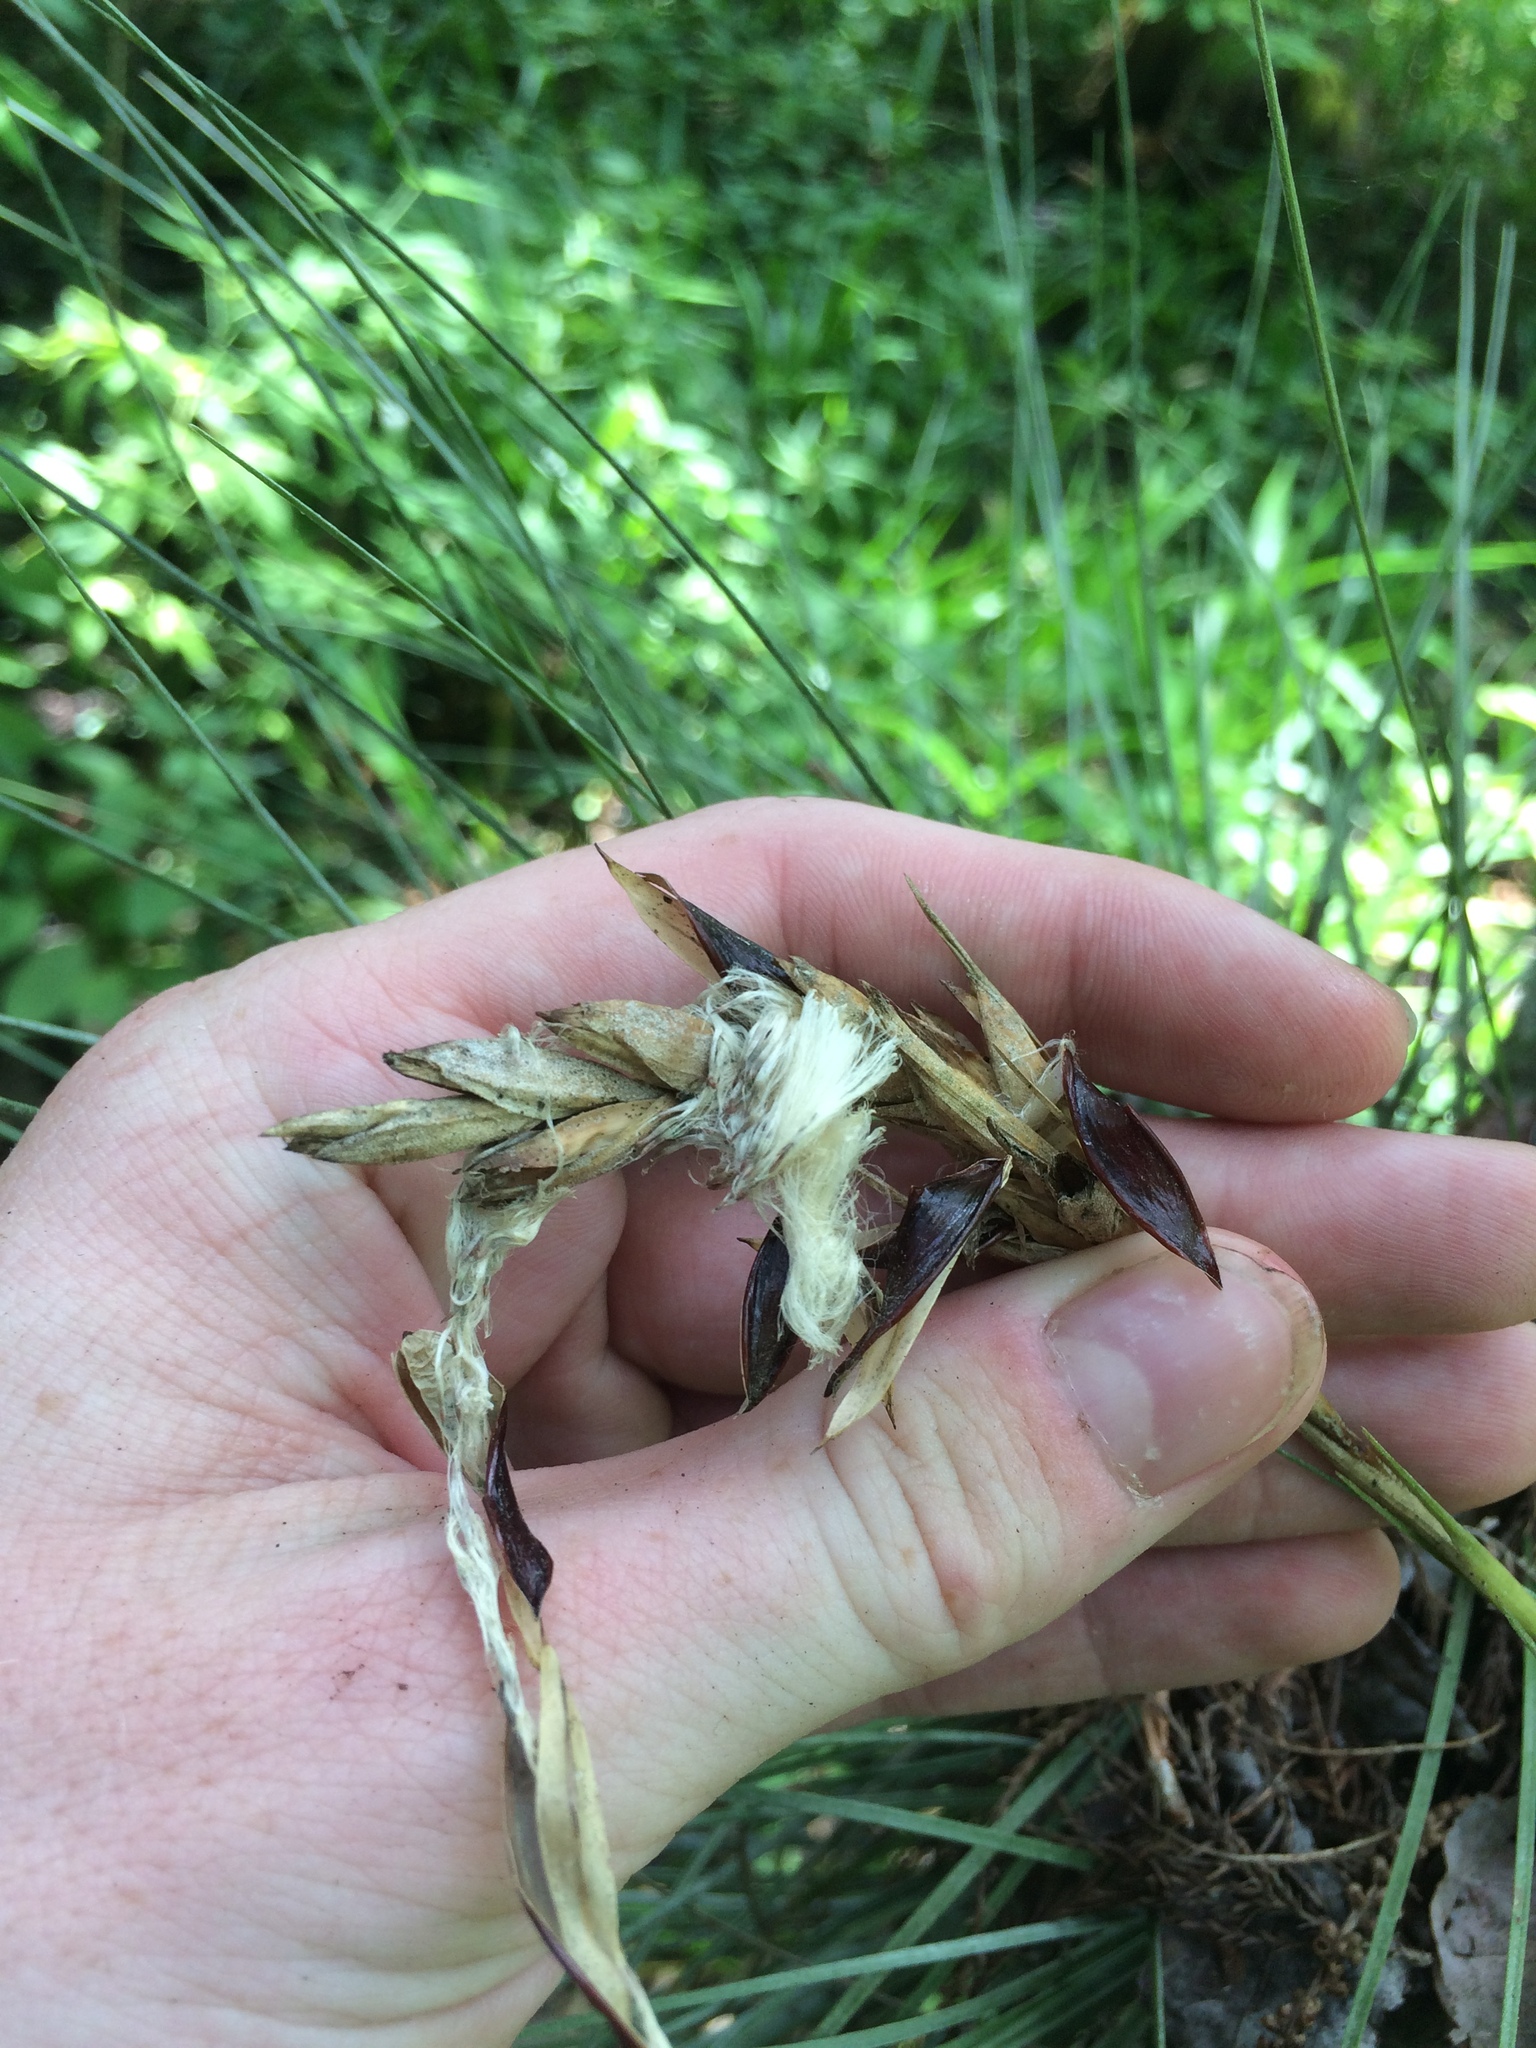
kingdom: Plantae
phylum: Tracheophyta
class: Liliopsida
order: Poales
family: Bromeliaceae
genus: Tillandsia
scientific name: Tillandsia bartramii
